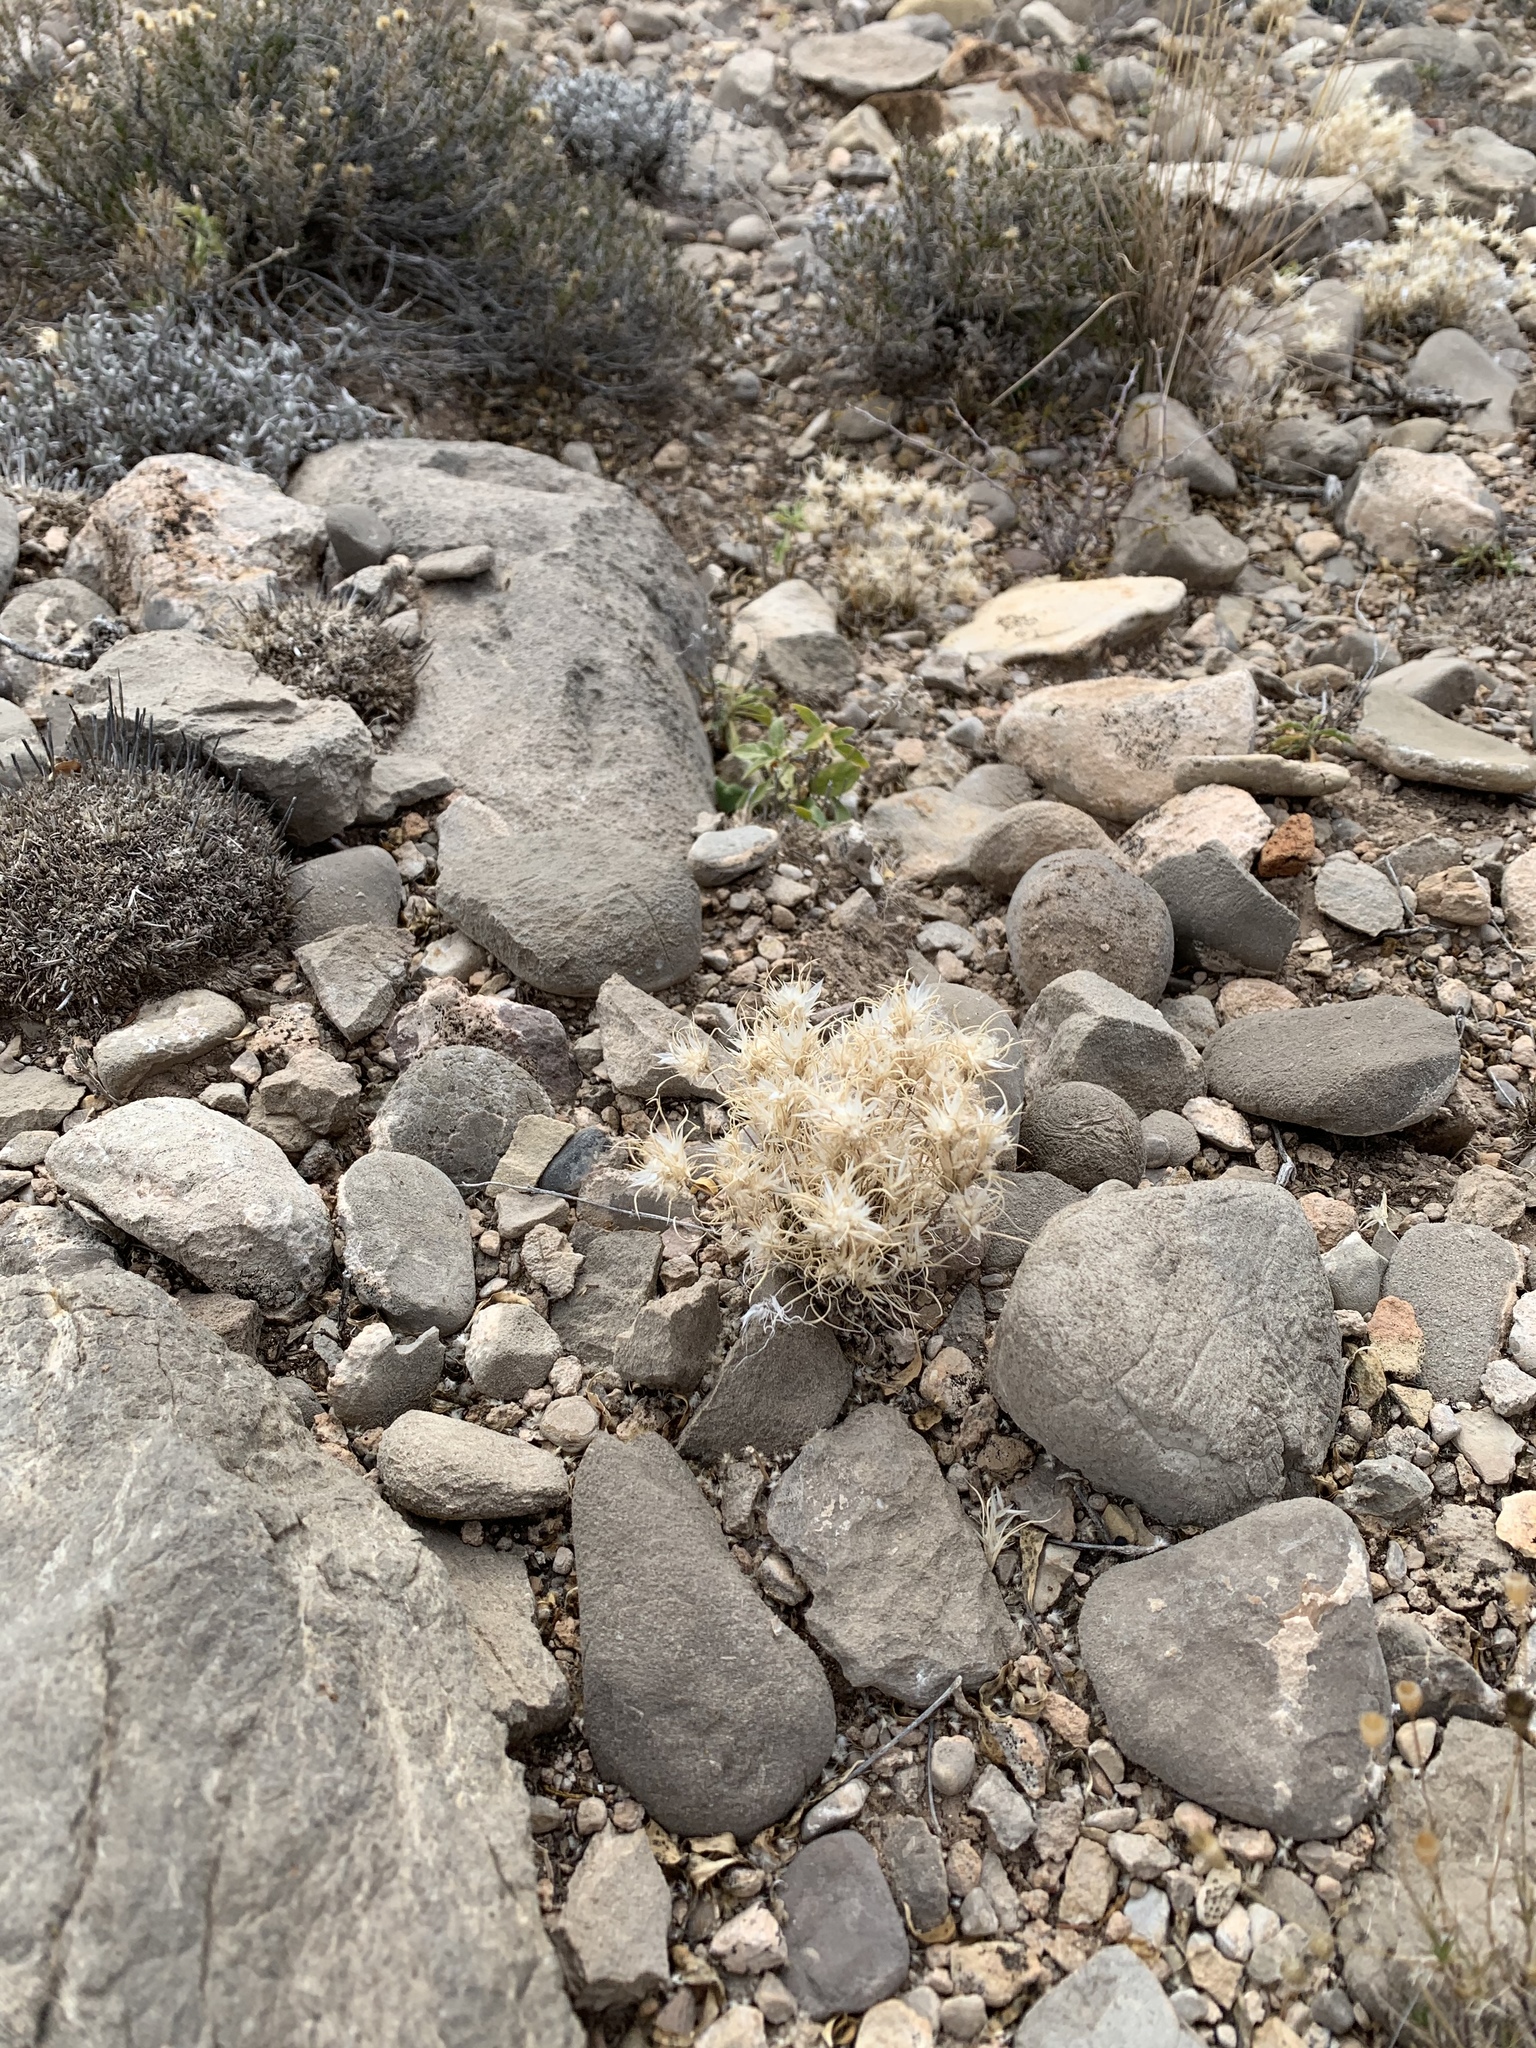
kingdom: Plantae
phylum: Tracheophyta
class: Liliopsida
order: Poales
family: Poaceae
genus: Dasyochloa
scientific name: Dasyochloa pulchella
